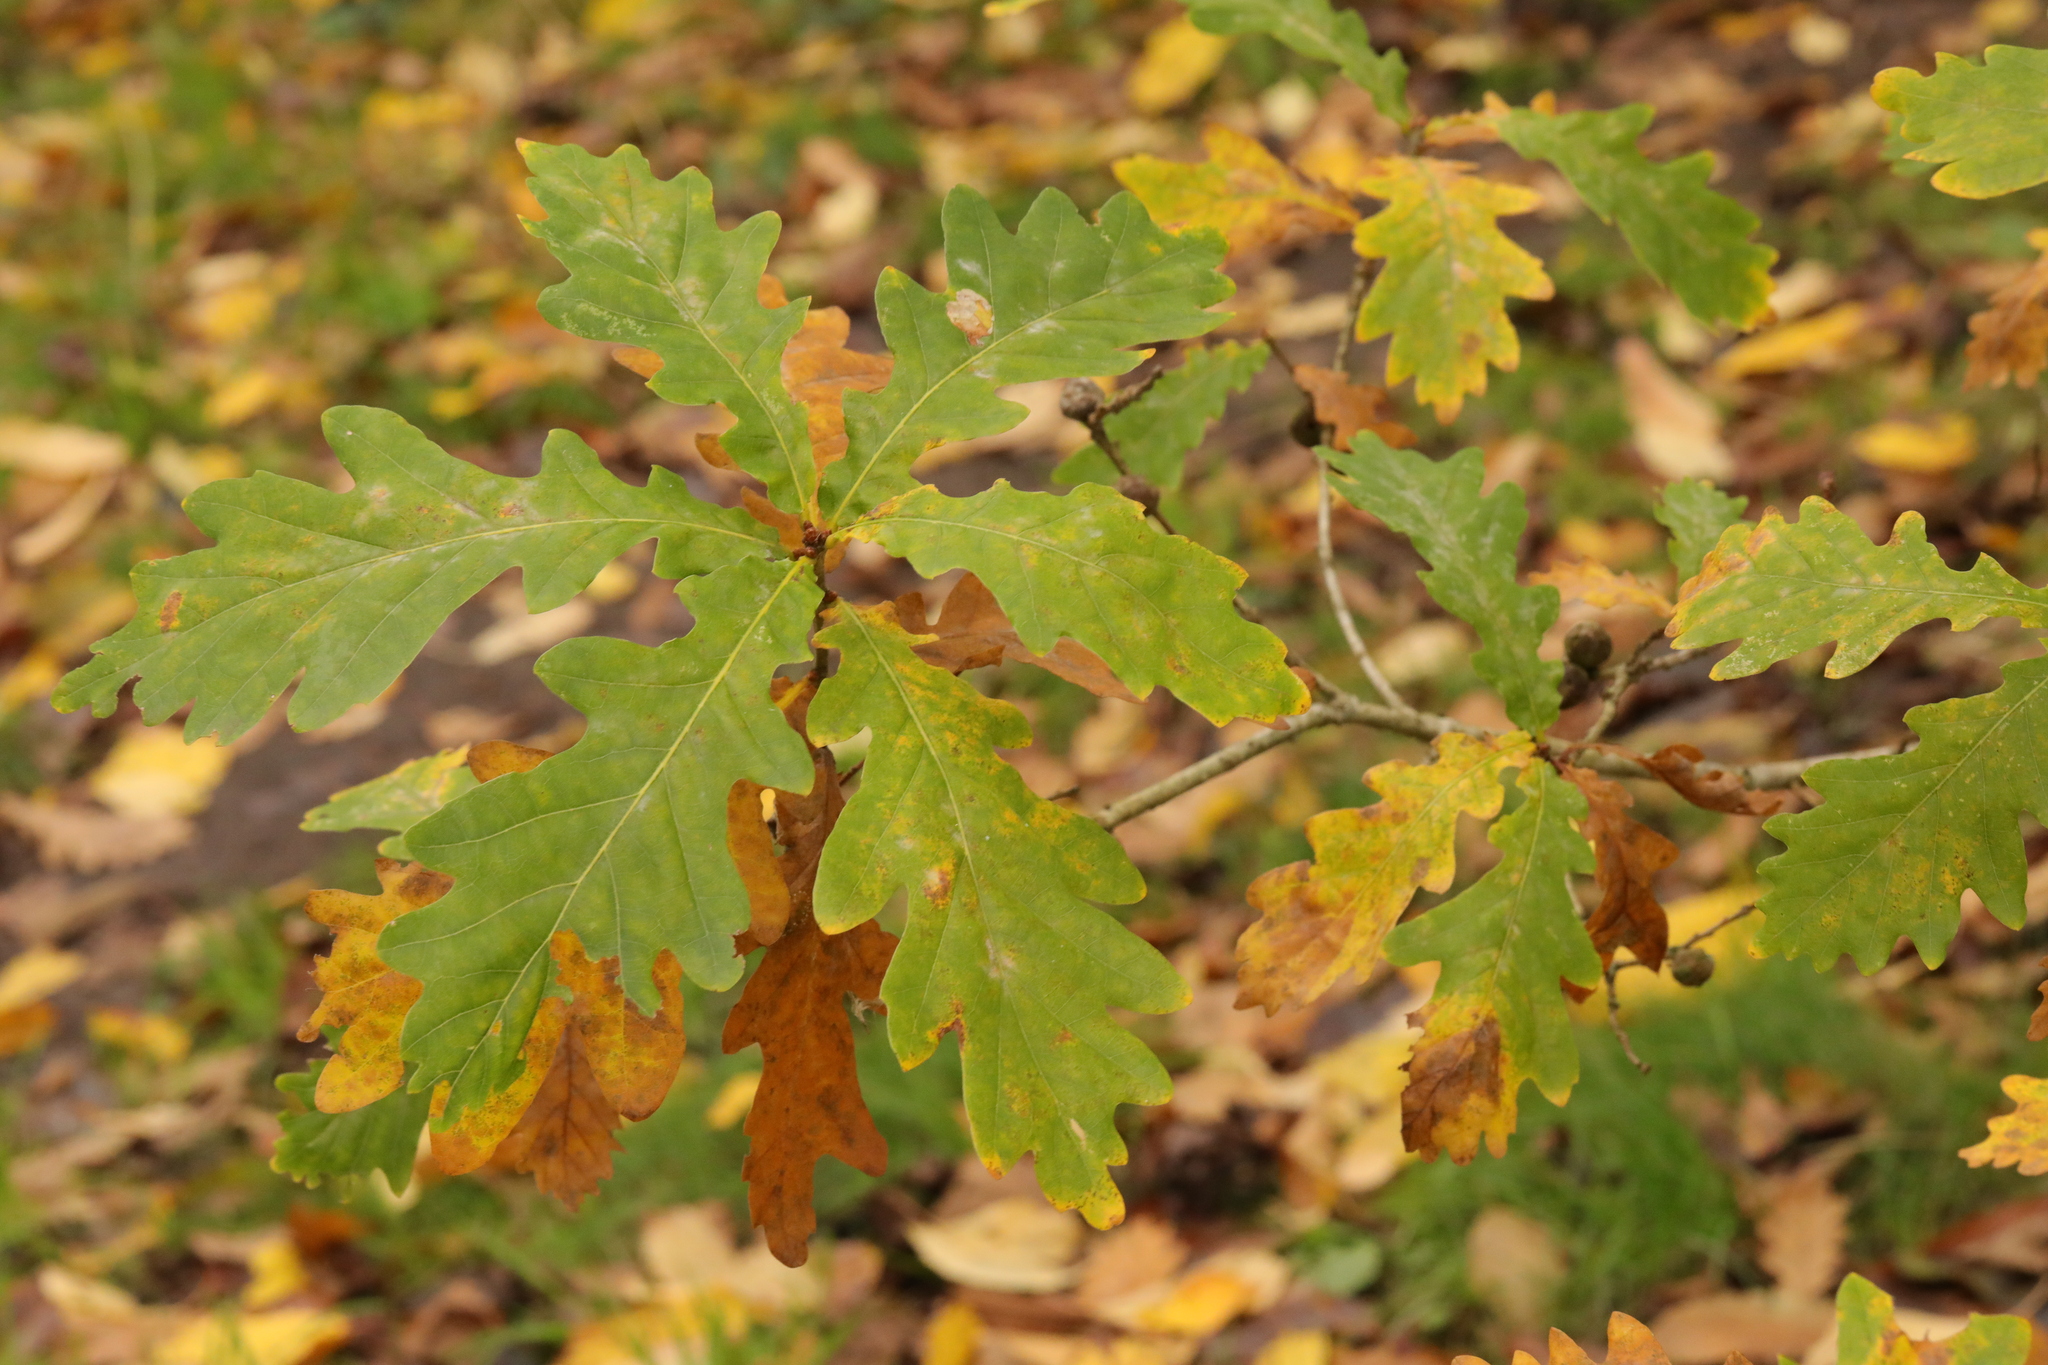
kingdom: Plantae
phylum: Tracheophyta
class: Magnoliopsida
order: Fagales
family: Fagaceae
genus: Quercus
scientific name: Quercus robur
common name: Pedunculate oak
